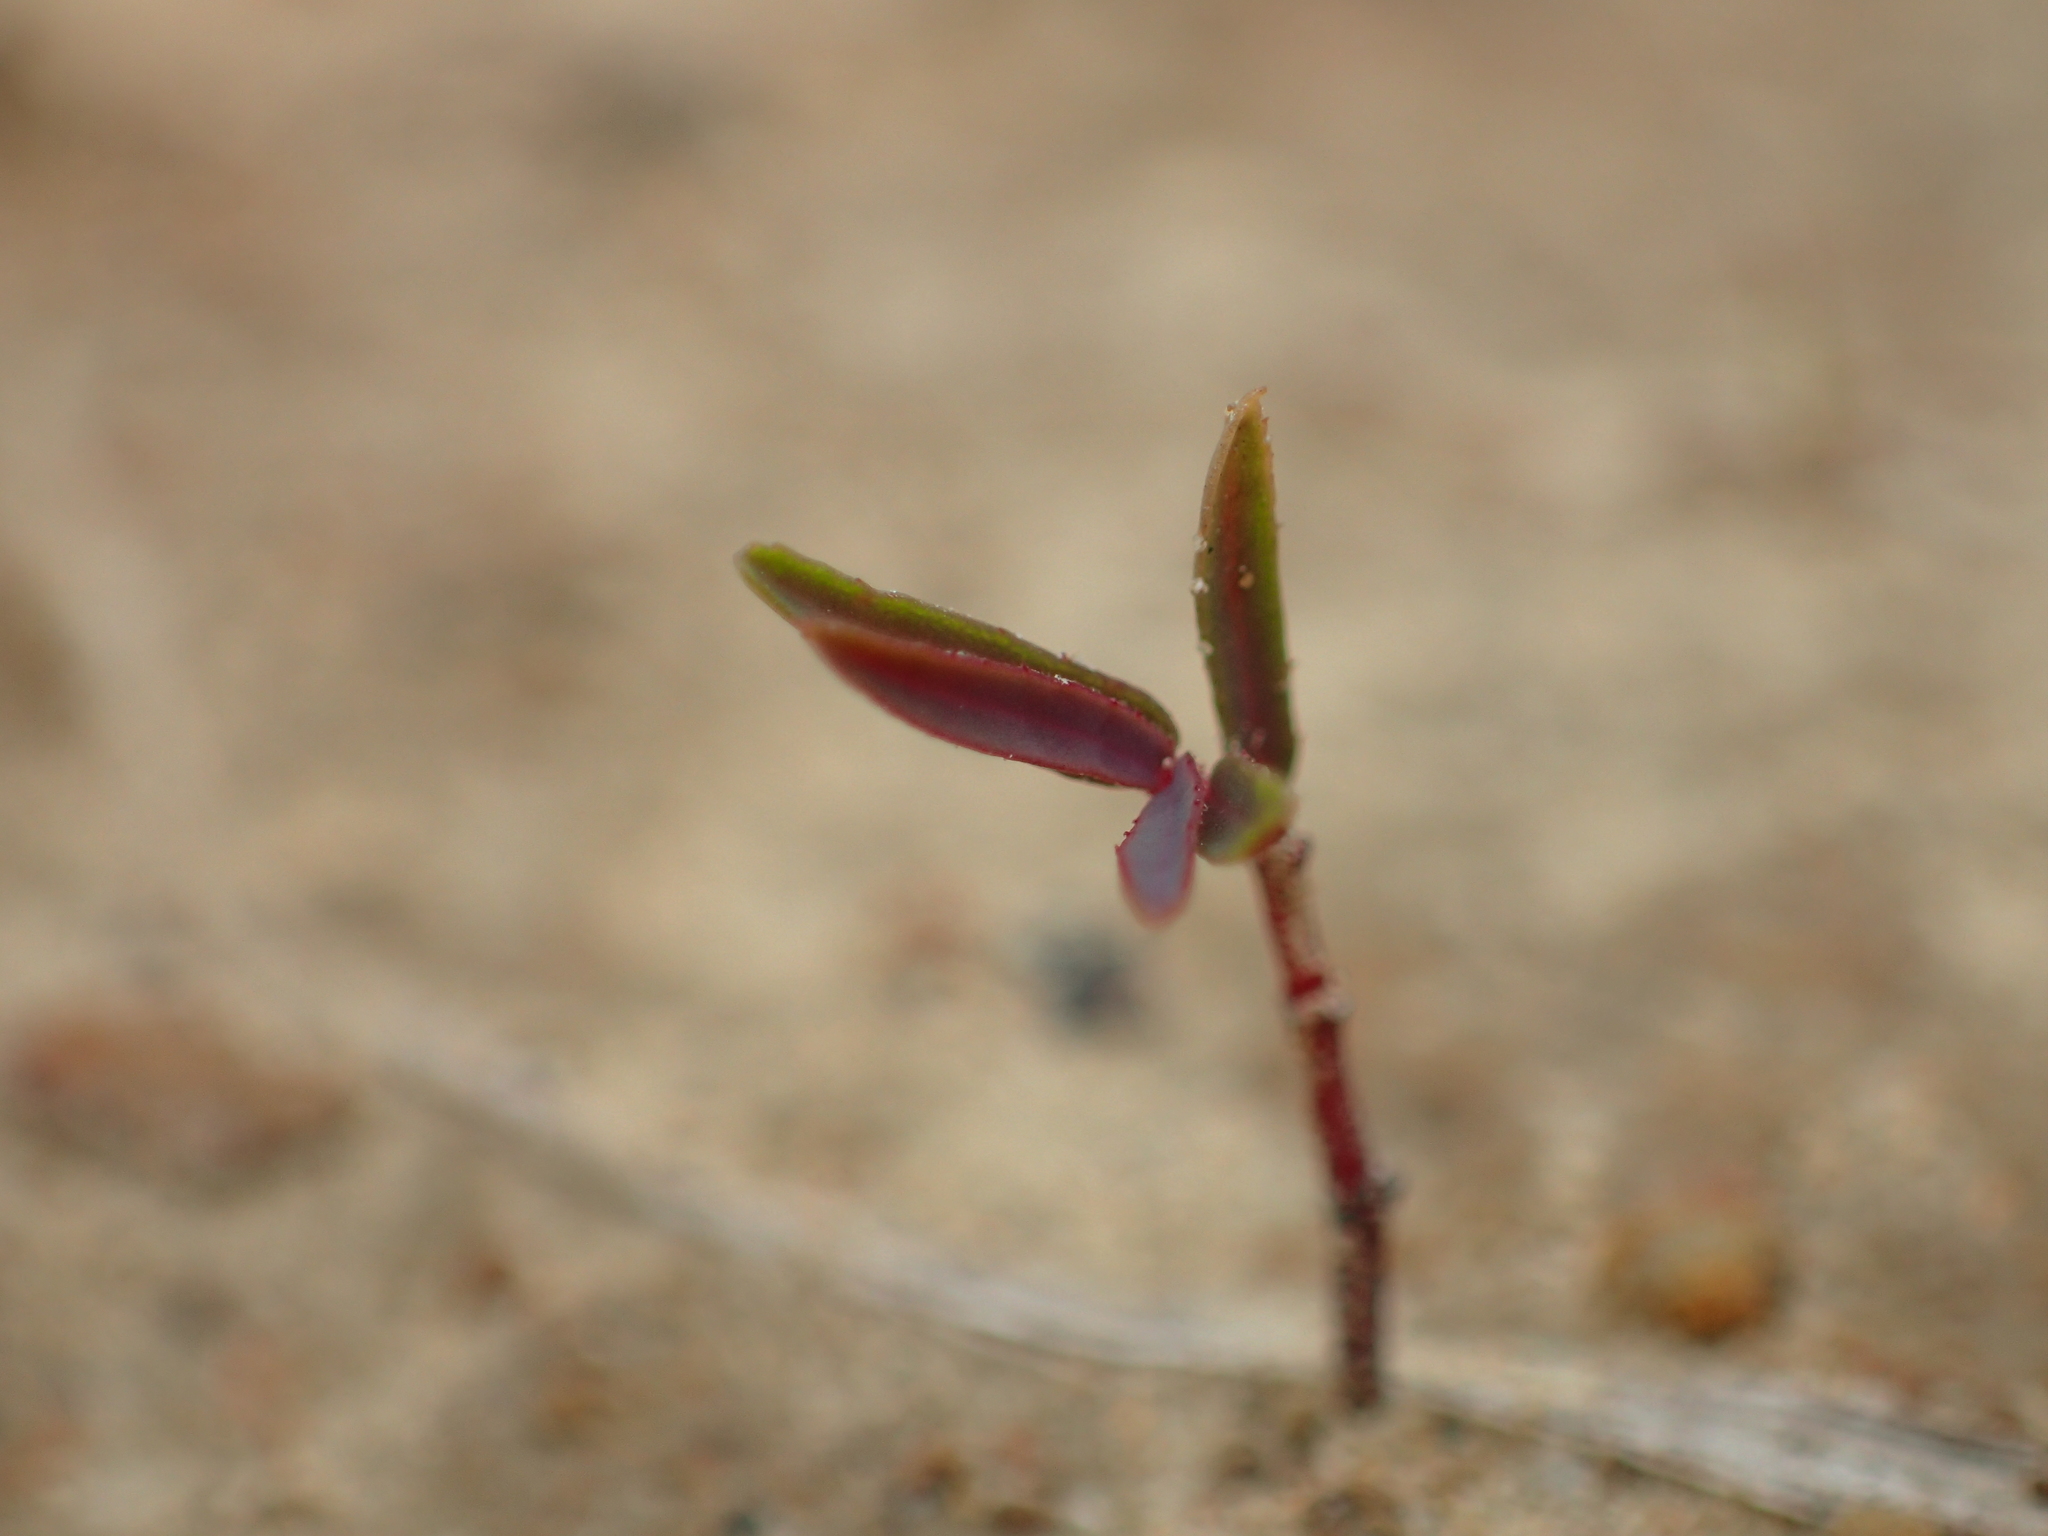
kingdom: Plantae
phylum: Tracheophyta
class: Magnoliopsida
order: Malpighiales
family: Euphorbiaceae
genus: Euphorbia
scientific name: Euphorbia bifida
